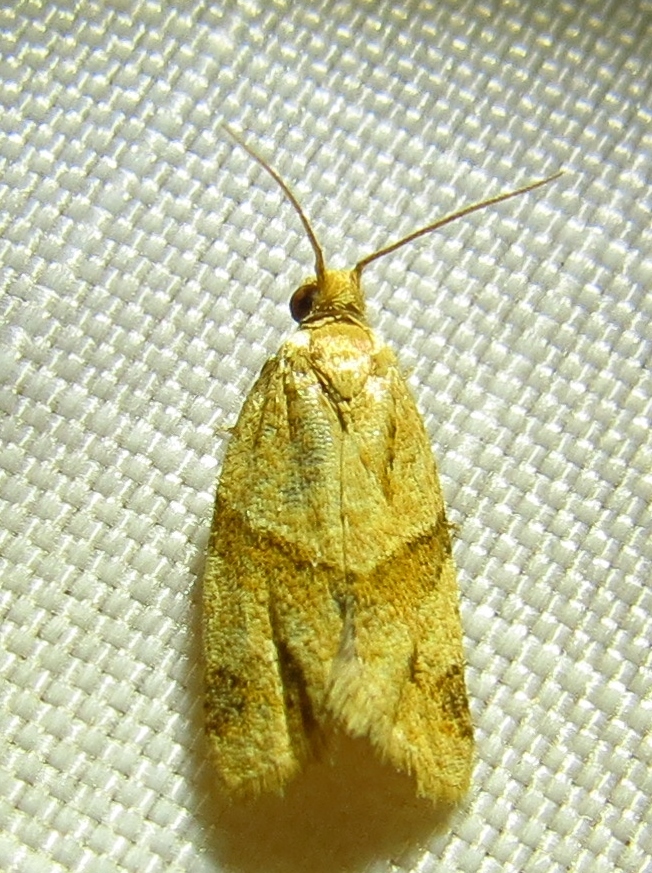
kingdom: Animalia
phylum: Arthropoda
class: Insecta
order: Lepidoptera
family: Tortricidae
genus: Clepsis
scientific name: Clepsis peritana
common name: Garden tortrix
